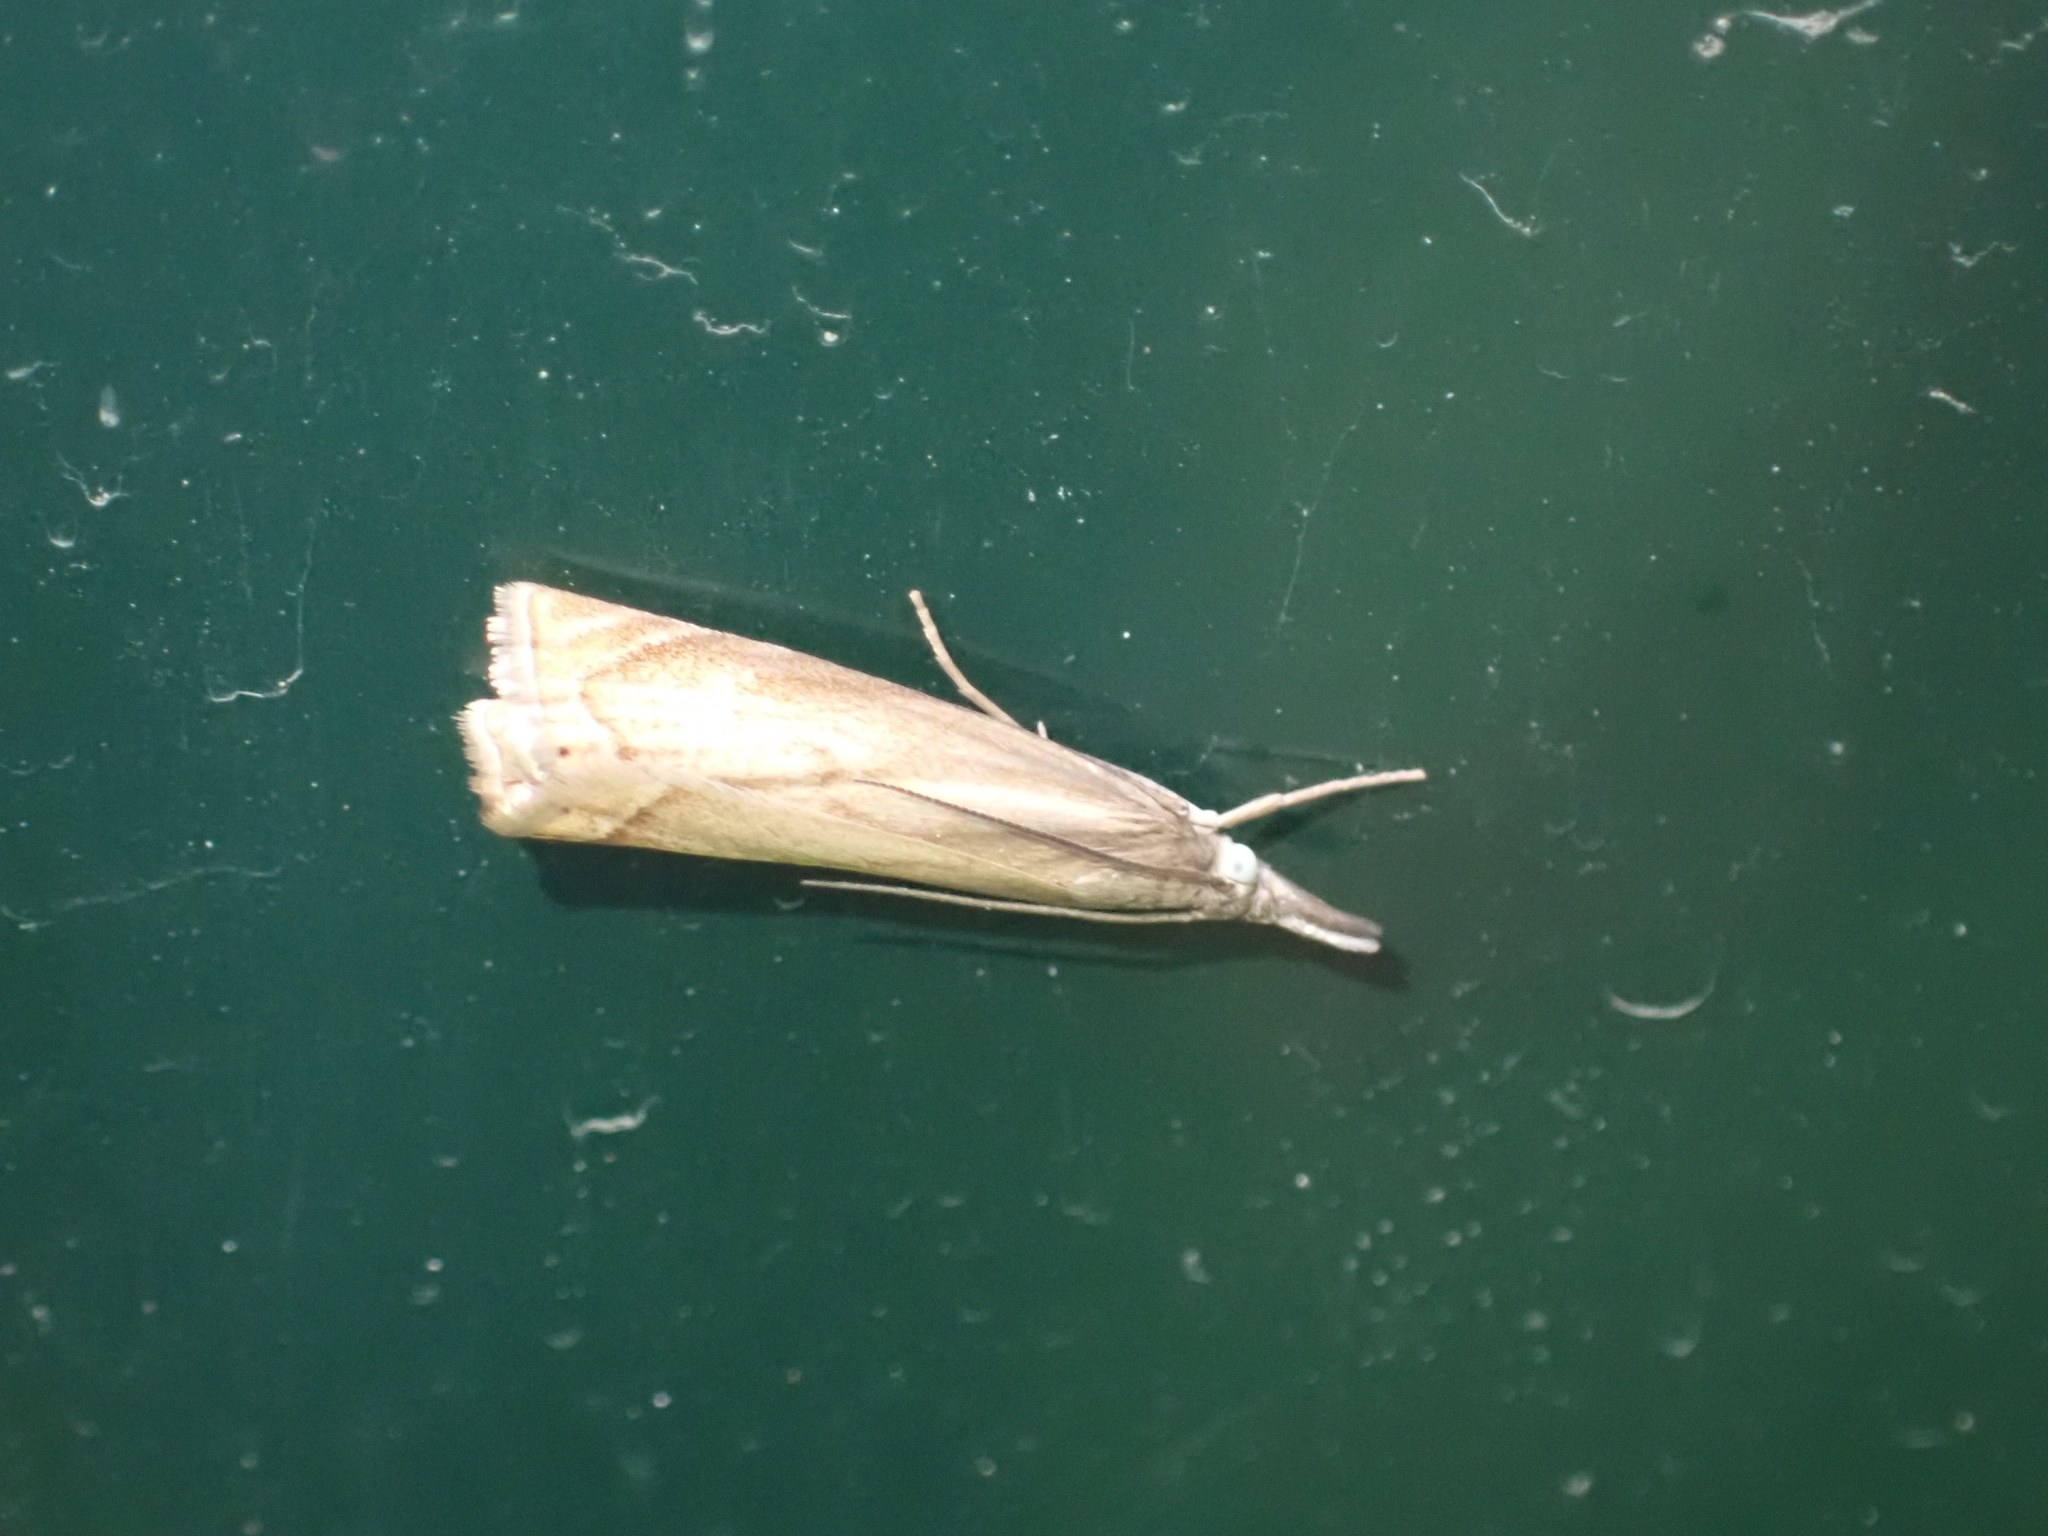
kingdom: Animalia
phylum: Arthropoda
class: Insecta
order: Lepidoptera
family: Crambidae
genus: Chrysoteuchia
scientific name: Chrysoteuchia culmella
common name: Garden grass-veneer
